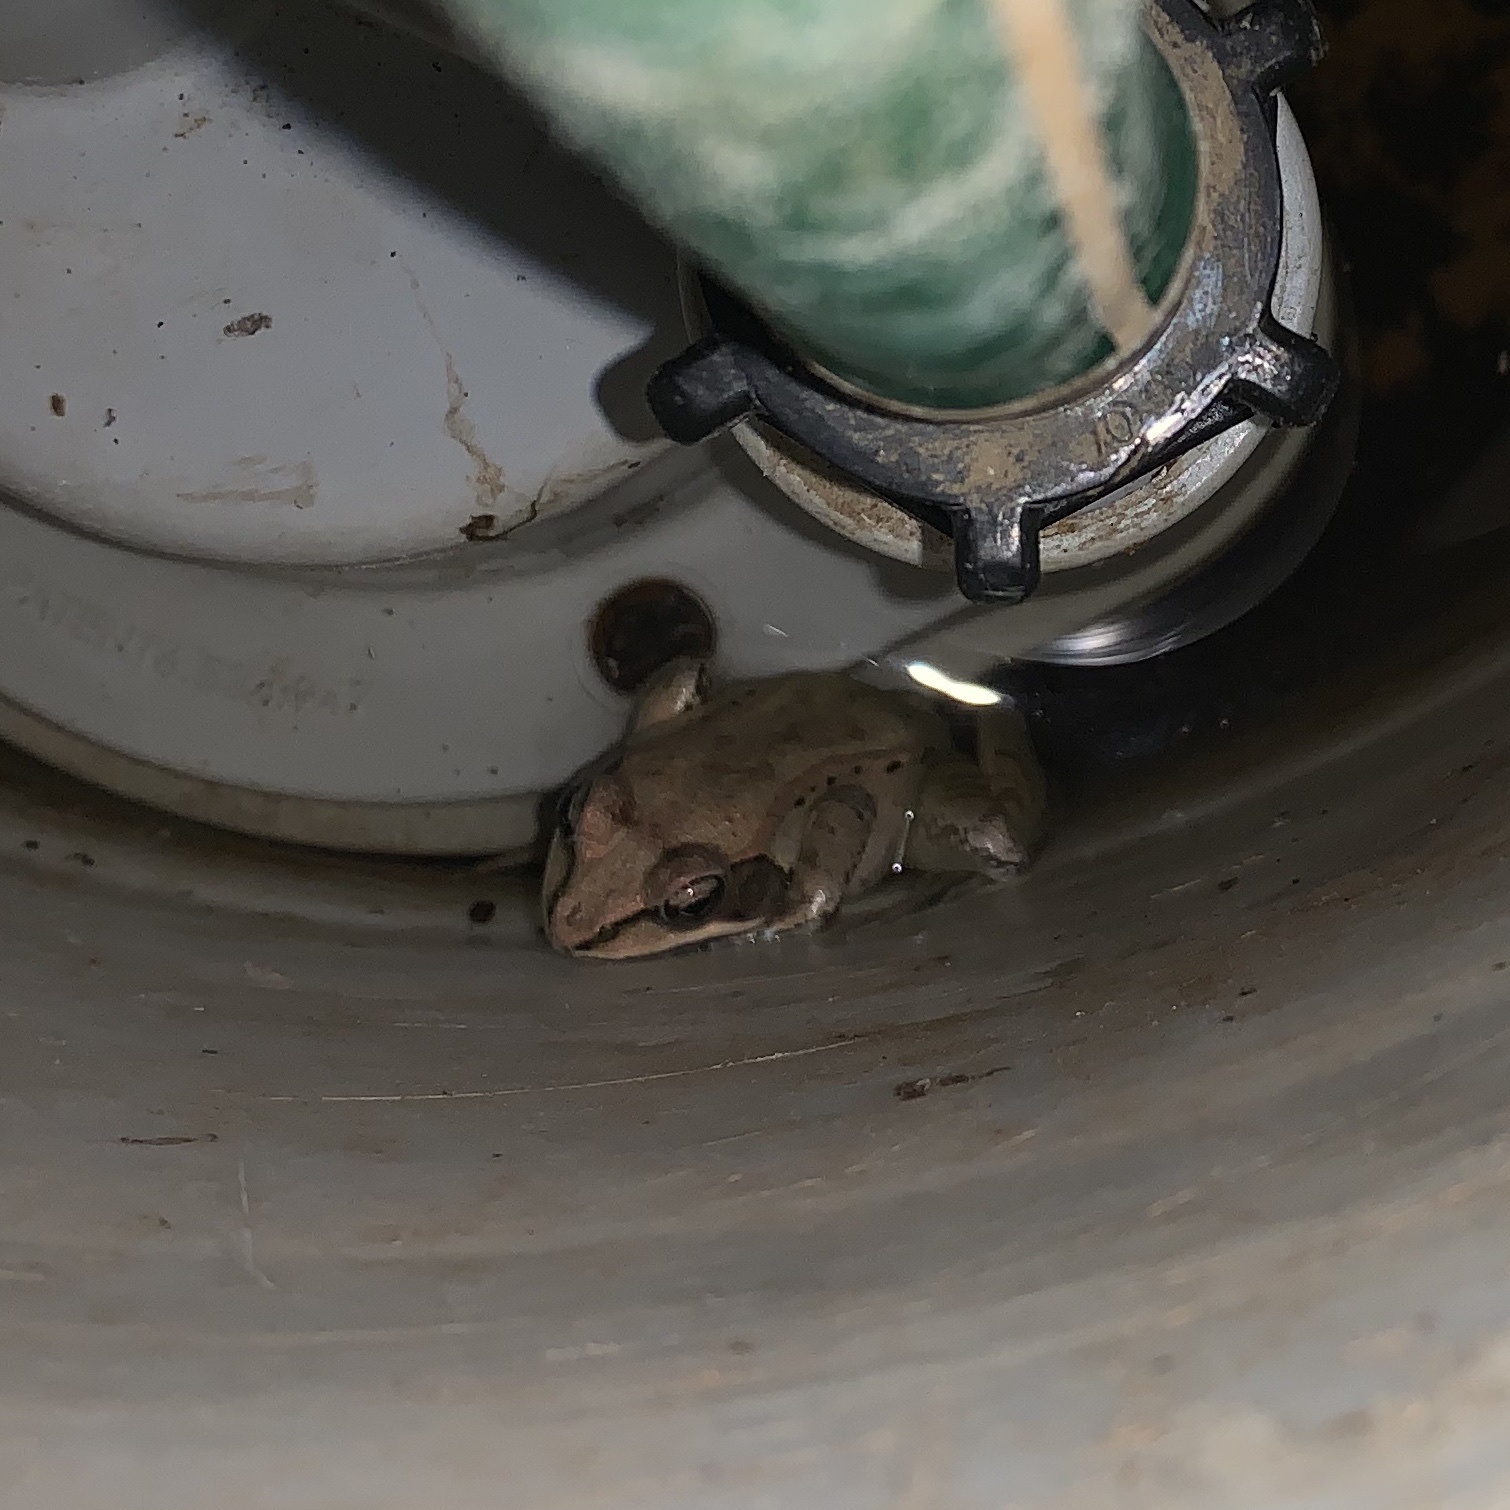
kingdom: Animalia
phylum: Chordata
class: Amphibia
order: Anura
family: Ranidae
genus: Lithobates
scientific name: Lithobates sylvaticus
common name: Wood frog
